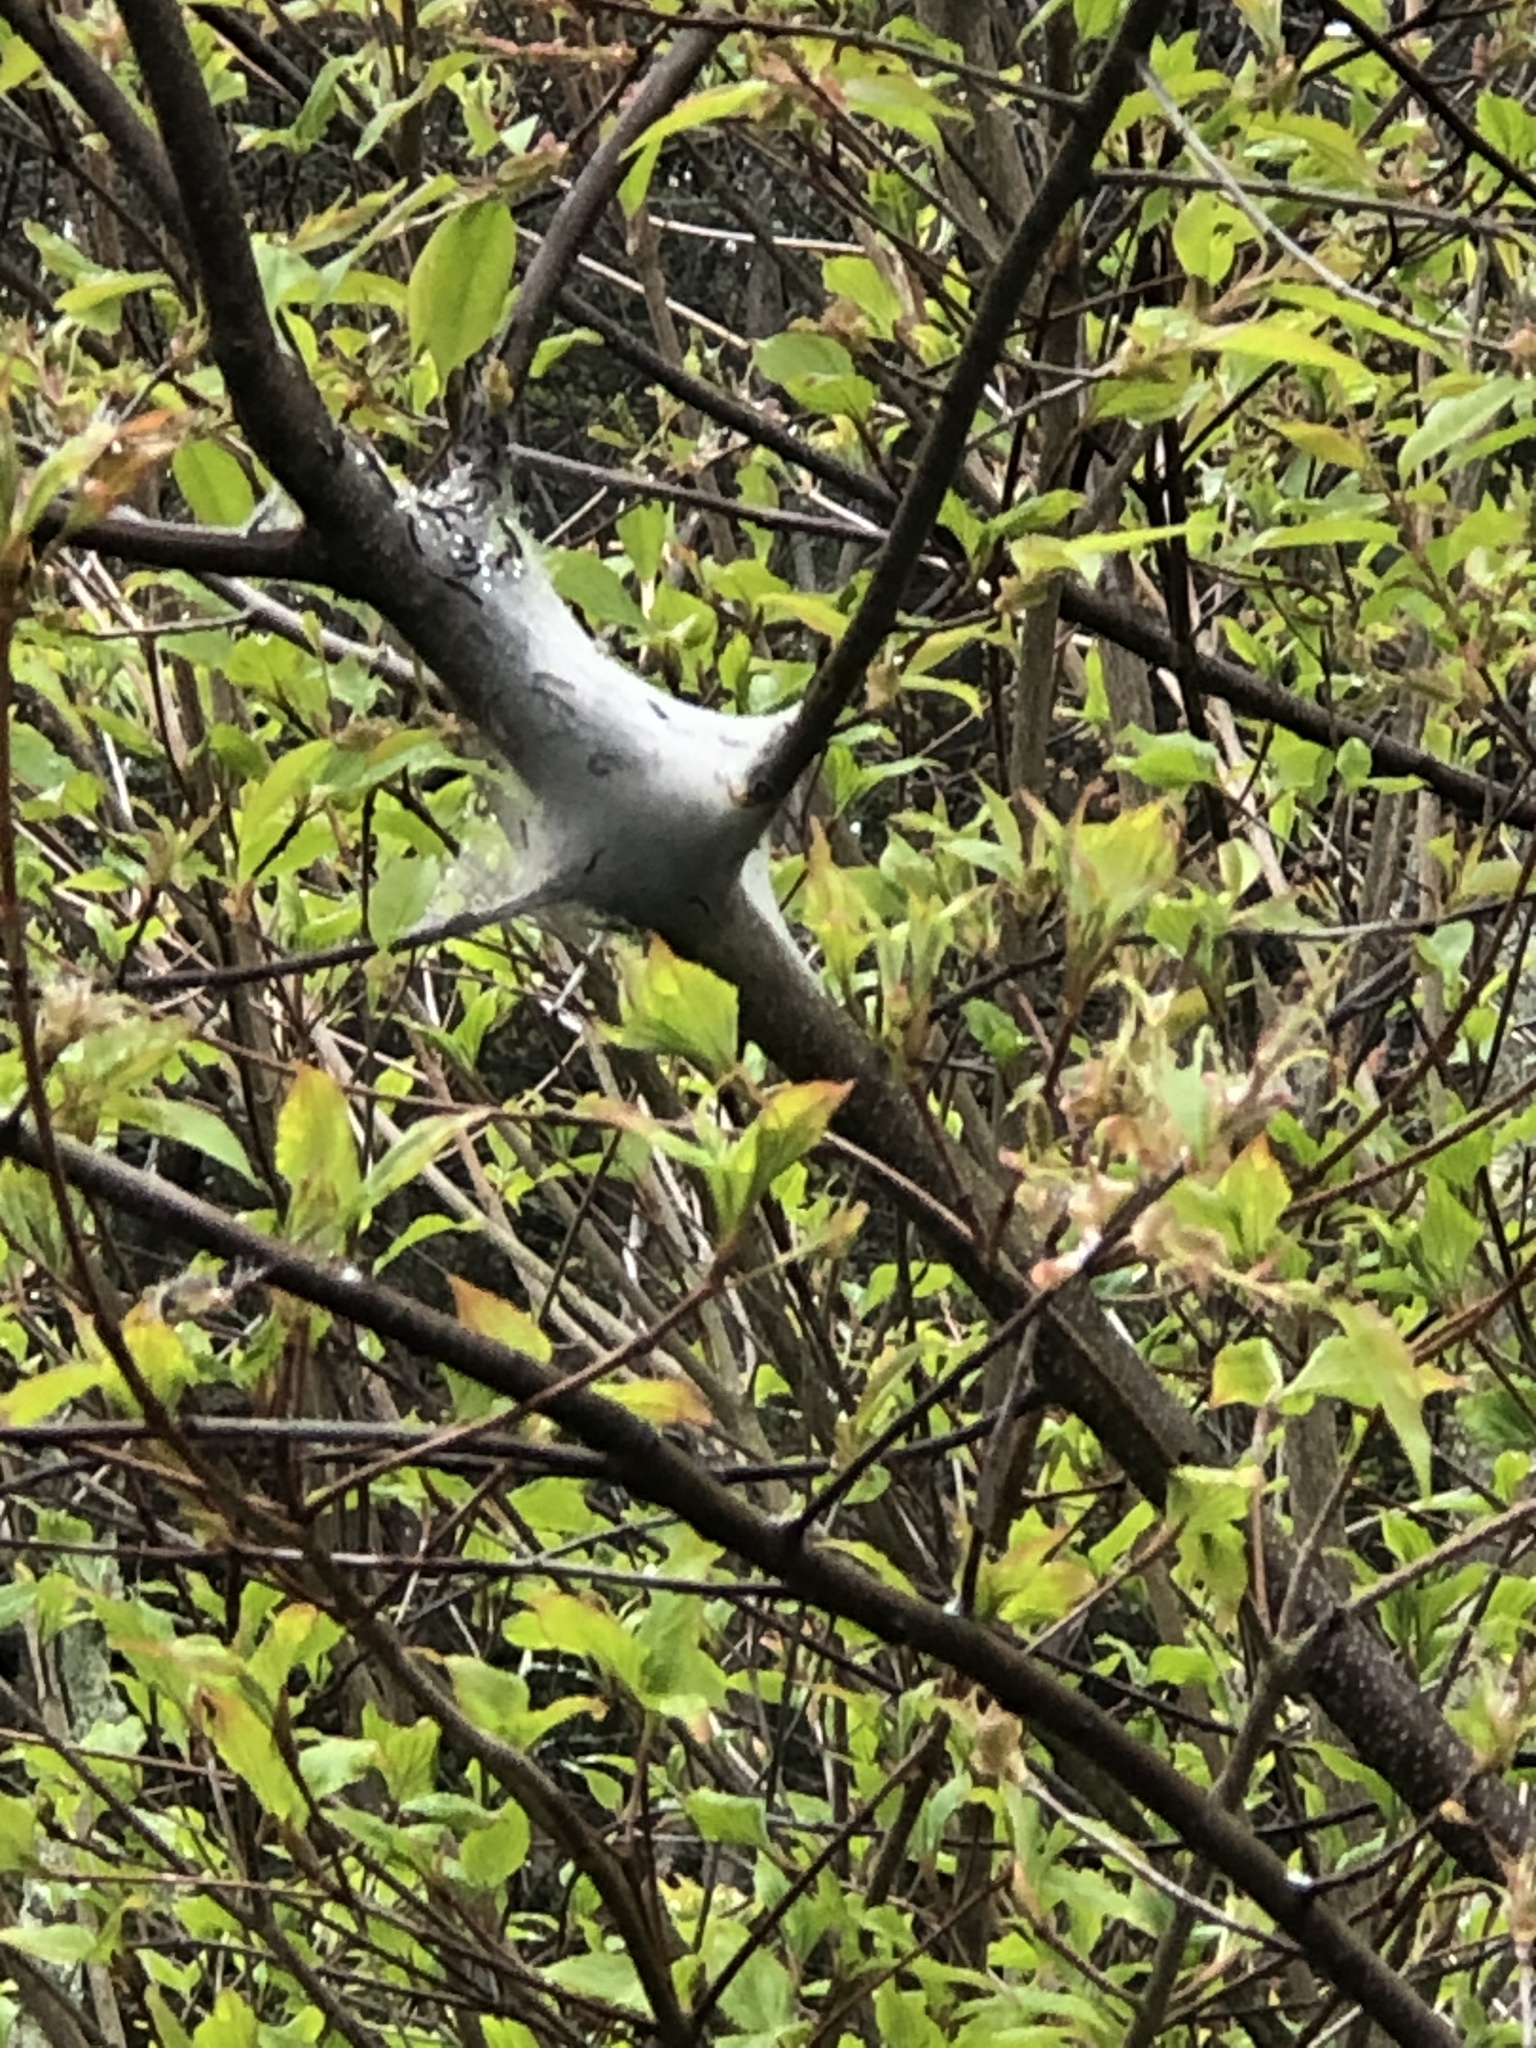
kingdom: Animalia
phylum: Arthropoda
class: Insecta
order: Lepidoptera
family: Lasiocampidae
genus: Malacosoma
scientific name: Malacosoma americana
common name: Eastern tent caterpillar moth
